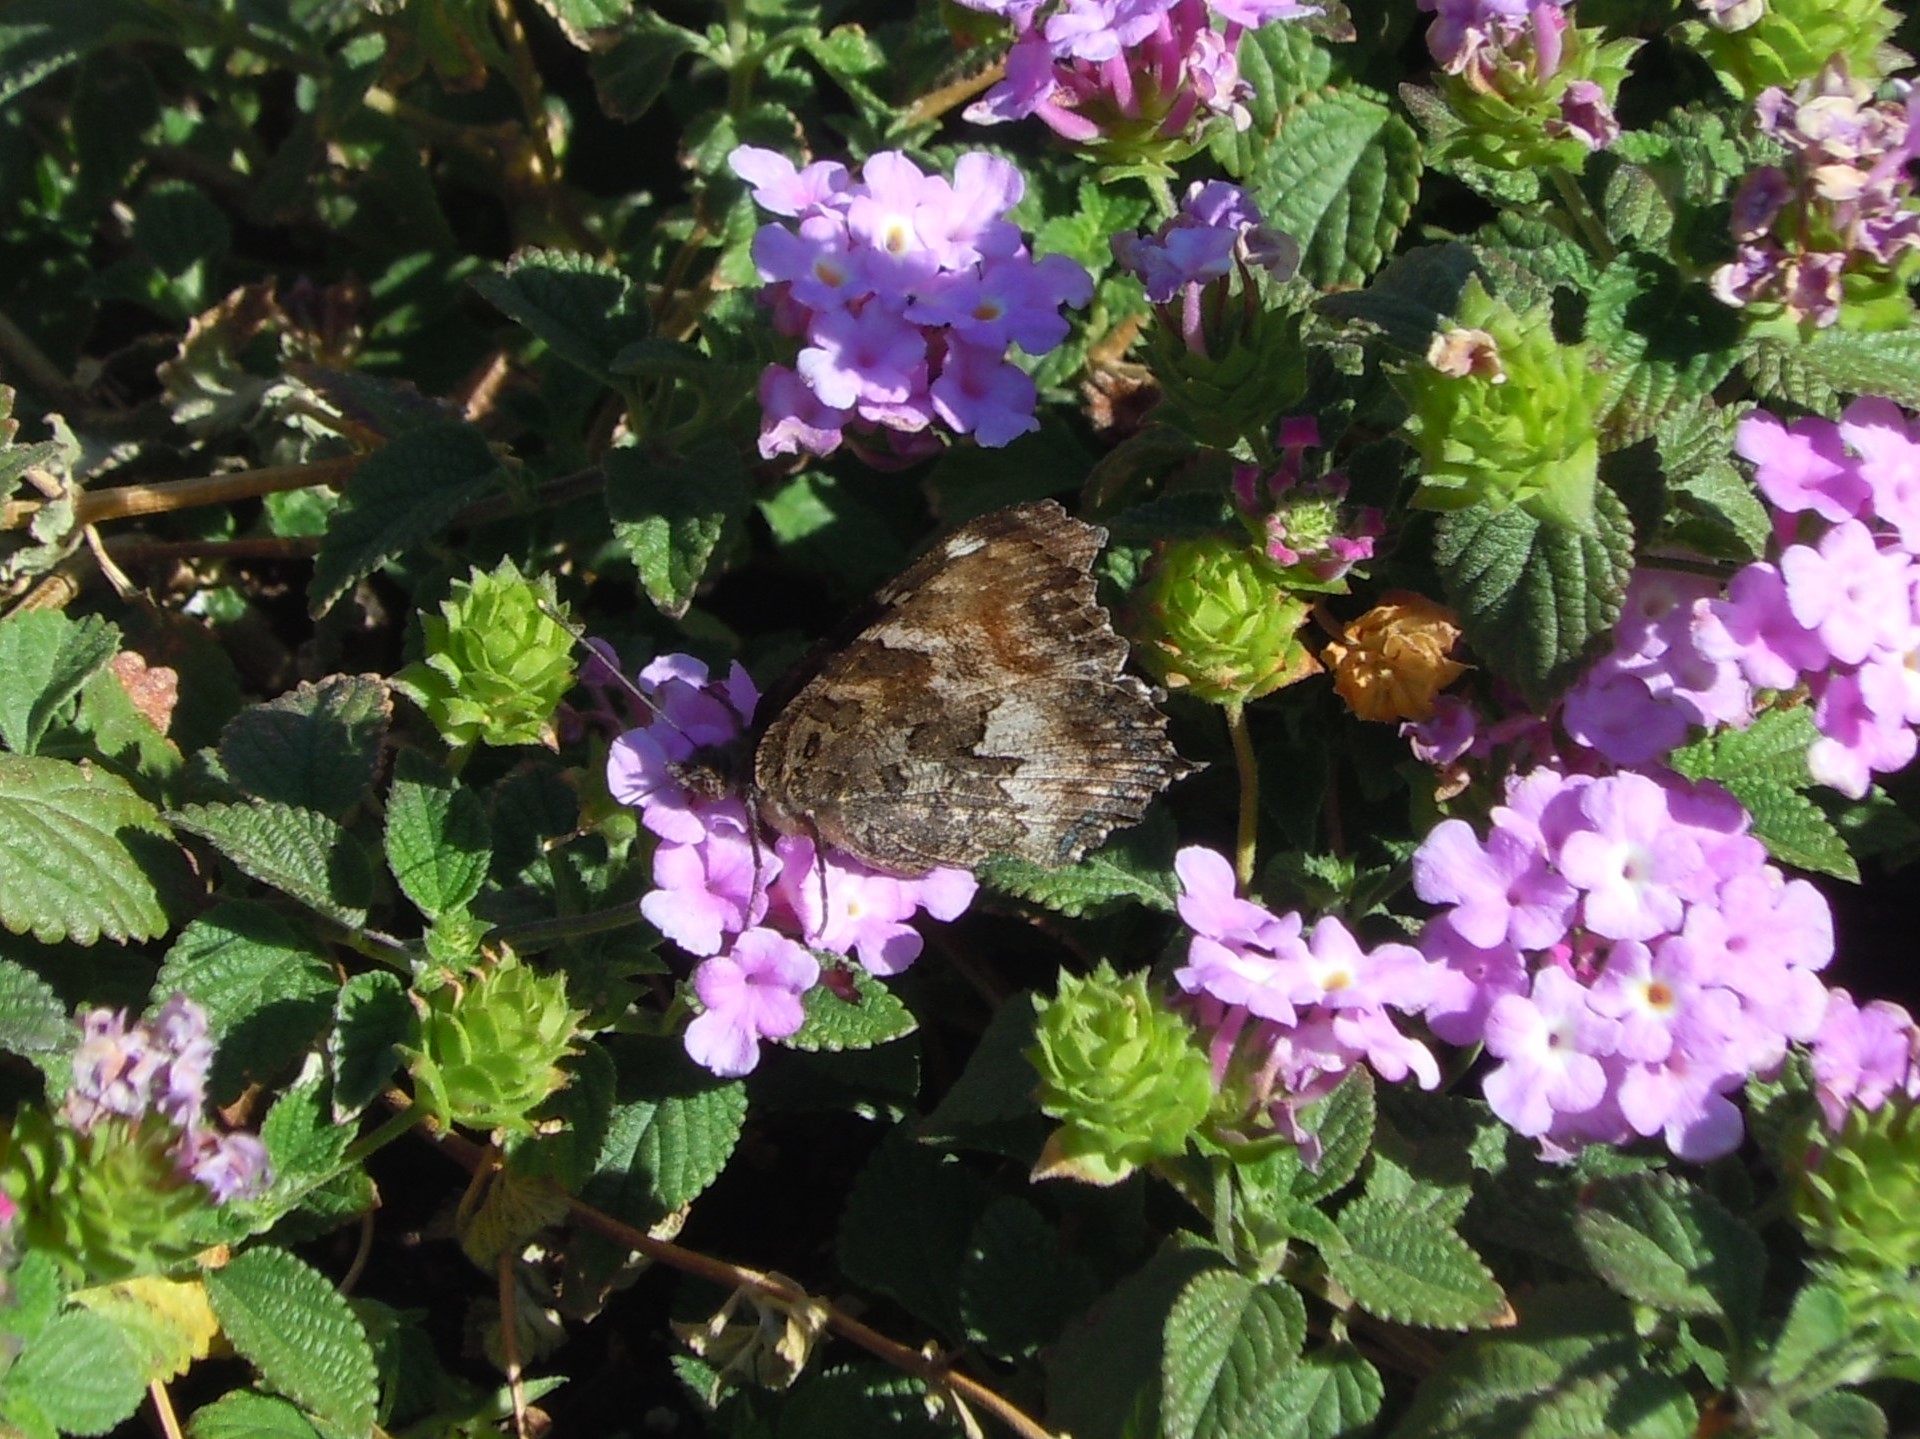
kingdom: Animalia
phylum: Arthropoda
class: Insecta
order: Lepidoptera
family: Nymphalidae
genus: Nymphalis
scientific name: Nymphalis californica
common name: California tortoiseshell
